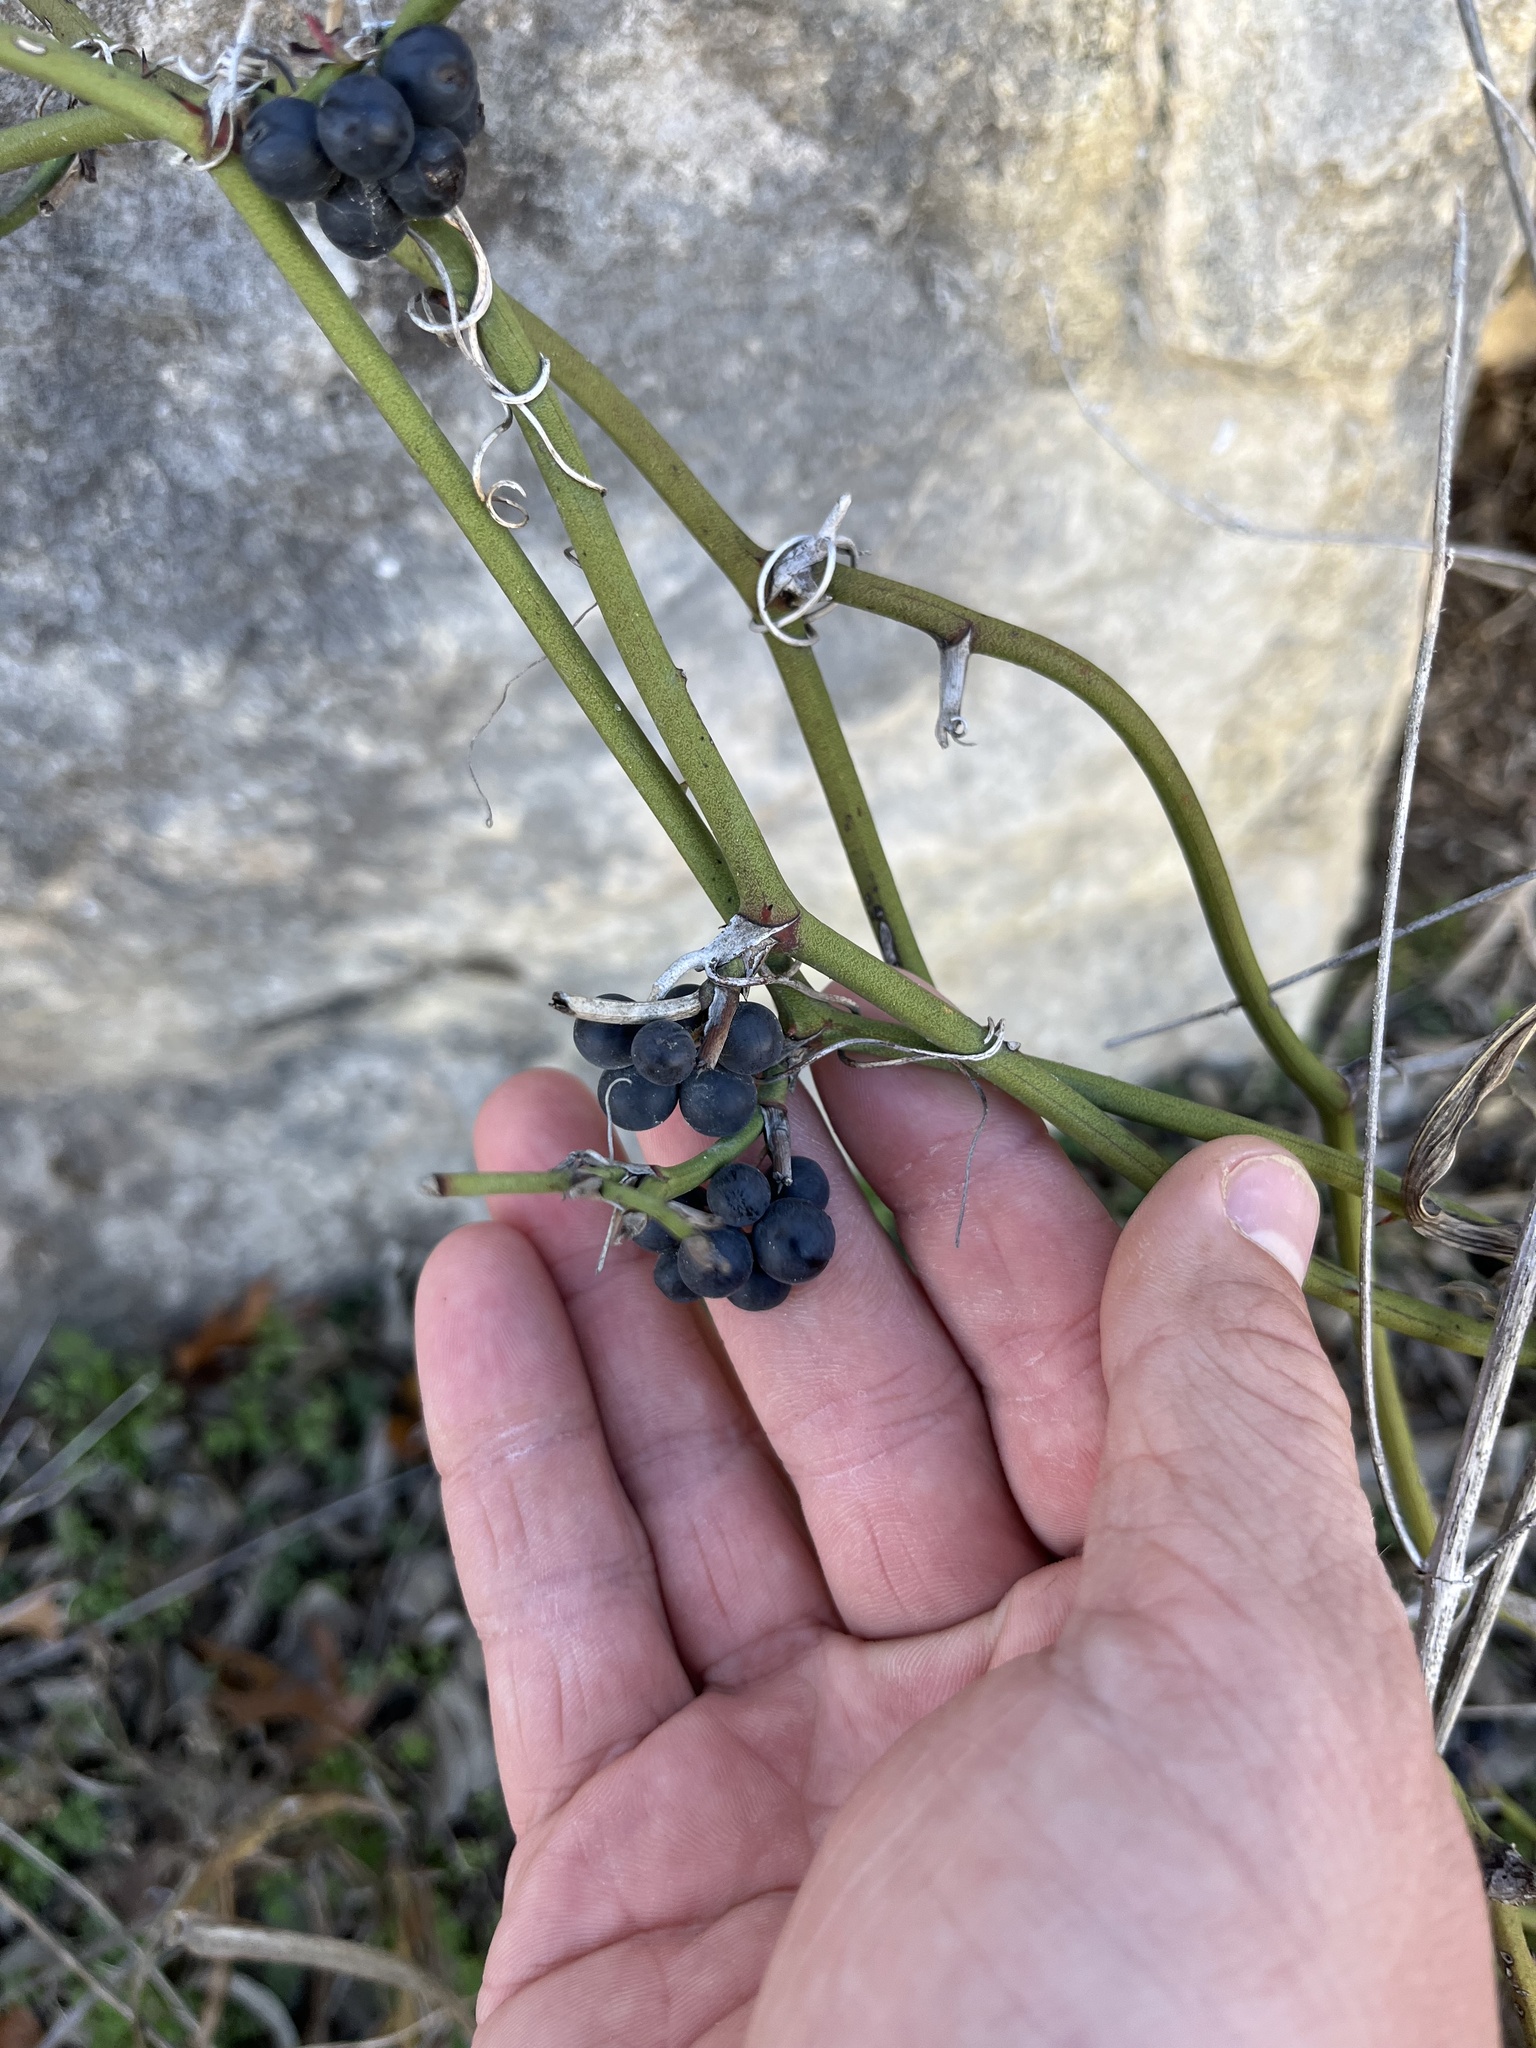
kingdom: Plantae
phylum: Tracheophyta
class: Liliopsida
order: Liliales
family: Smilacaceae
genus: Smilax
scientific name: Smilax bona-nox
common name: Catbrier
